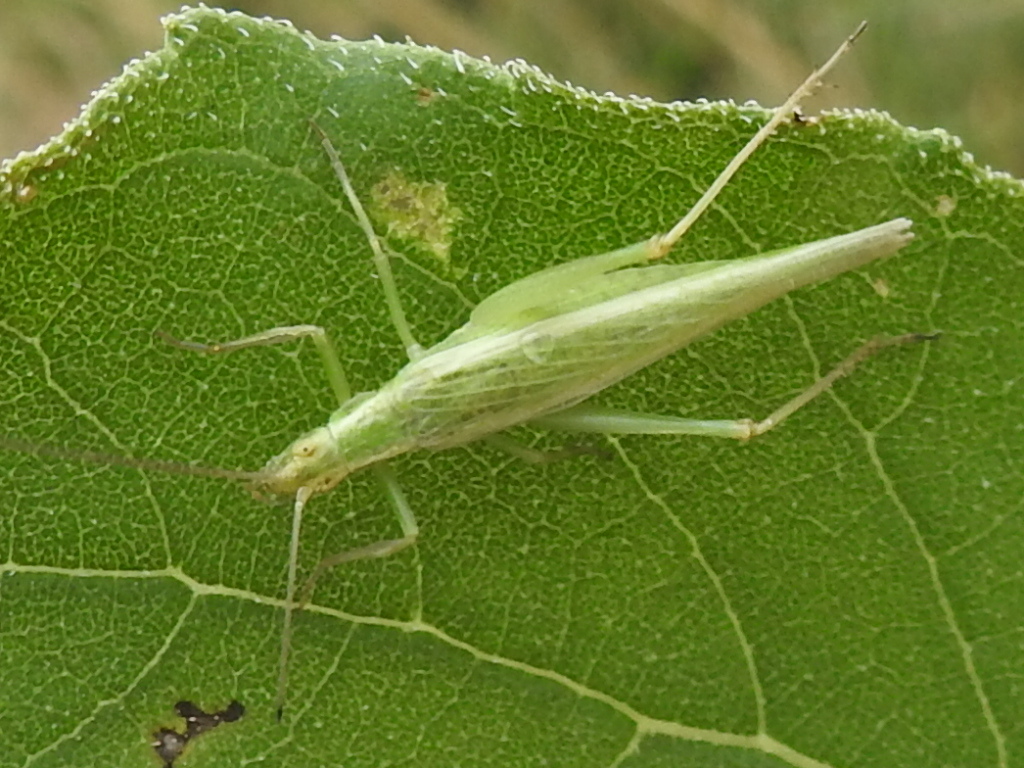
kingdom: Animalia
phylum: Arthropoda
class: Insecta
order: Orthoptera
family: Gryllidae
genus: Oecanthus
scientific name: Oecanthus argentinus
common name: Prairie tree cricket
